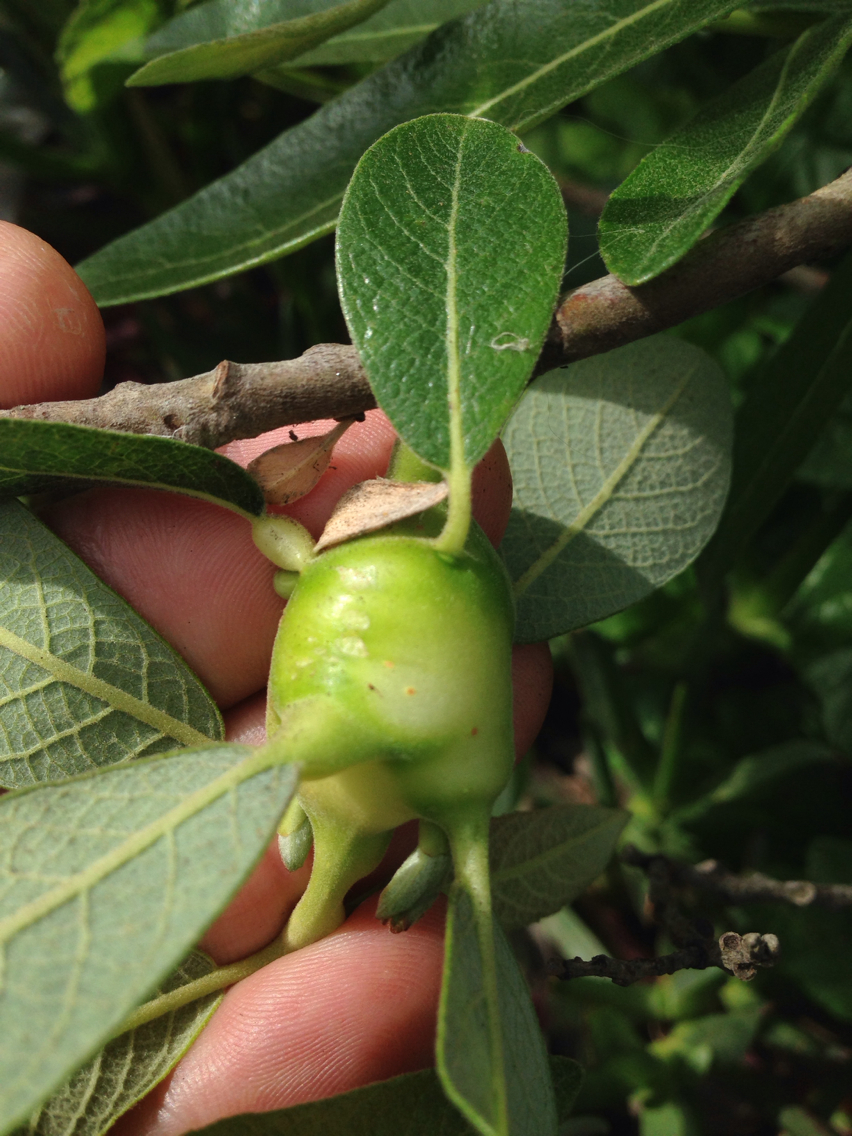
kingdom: Animalia
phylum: Arthropoda
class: Insecta
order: Diptera
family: Cecidomyiidae
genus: Rabdophaga
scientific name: Rabdophaga salicisbatatas
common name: Potato gall midge
